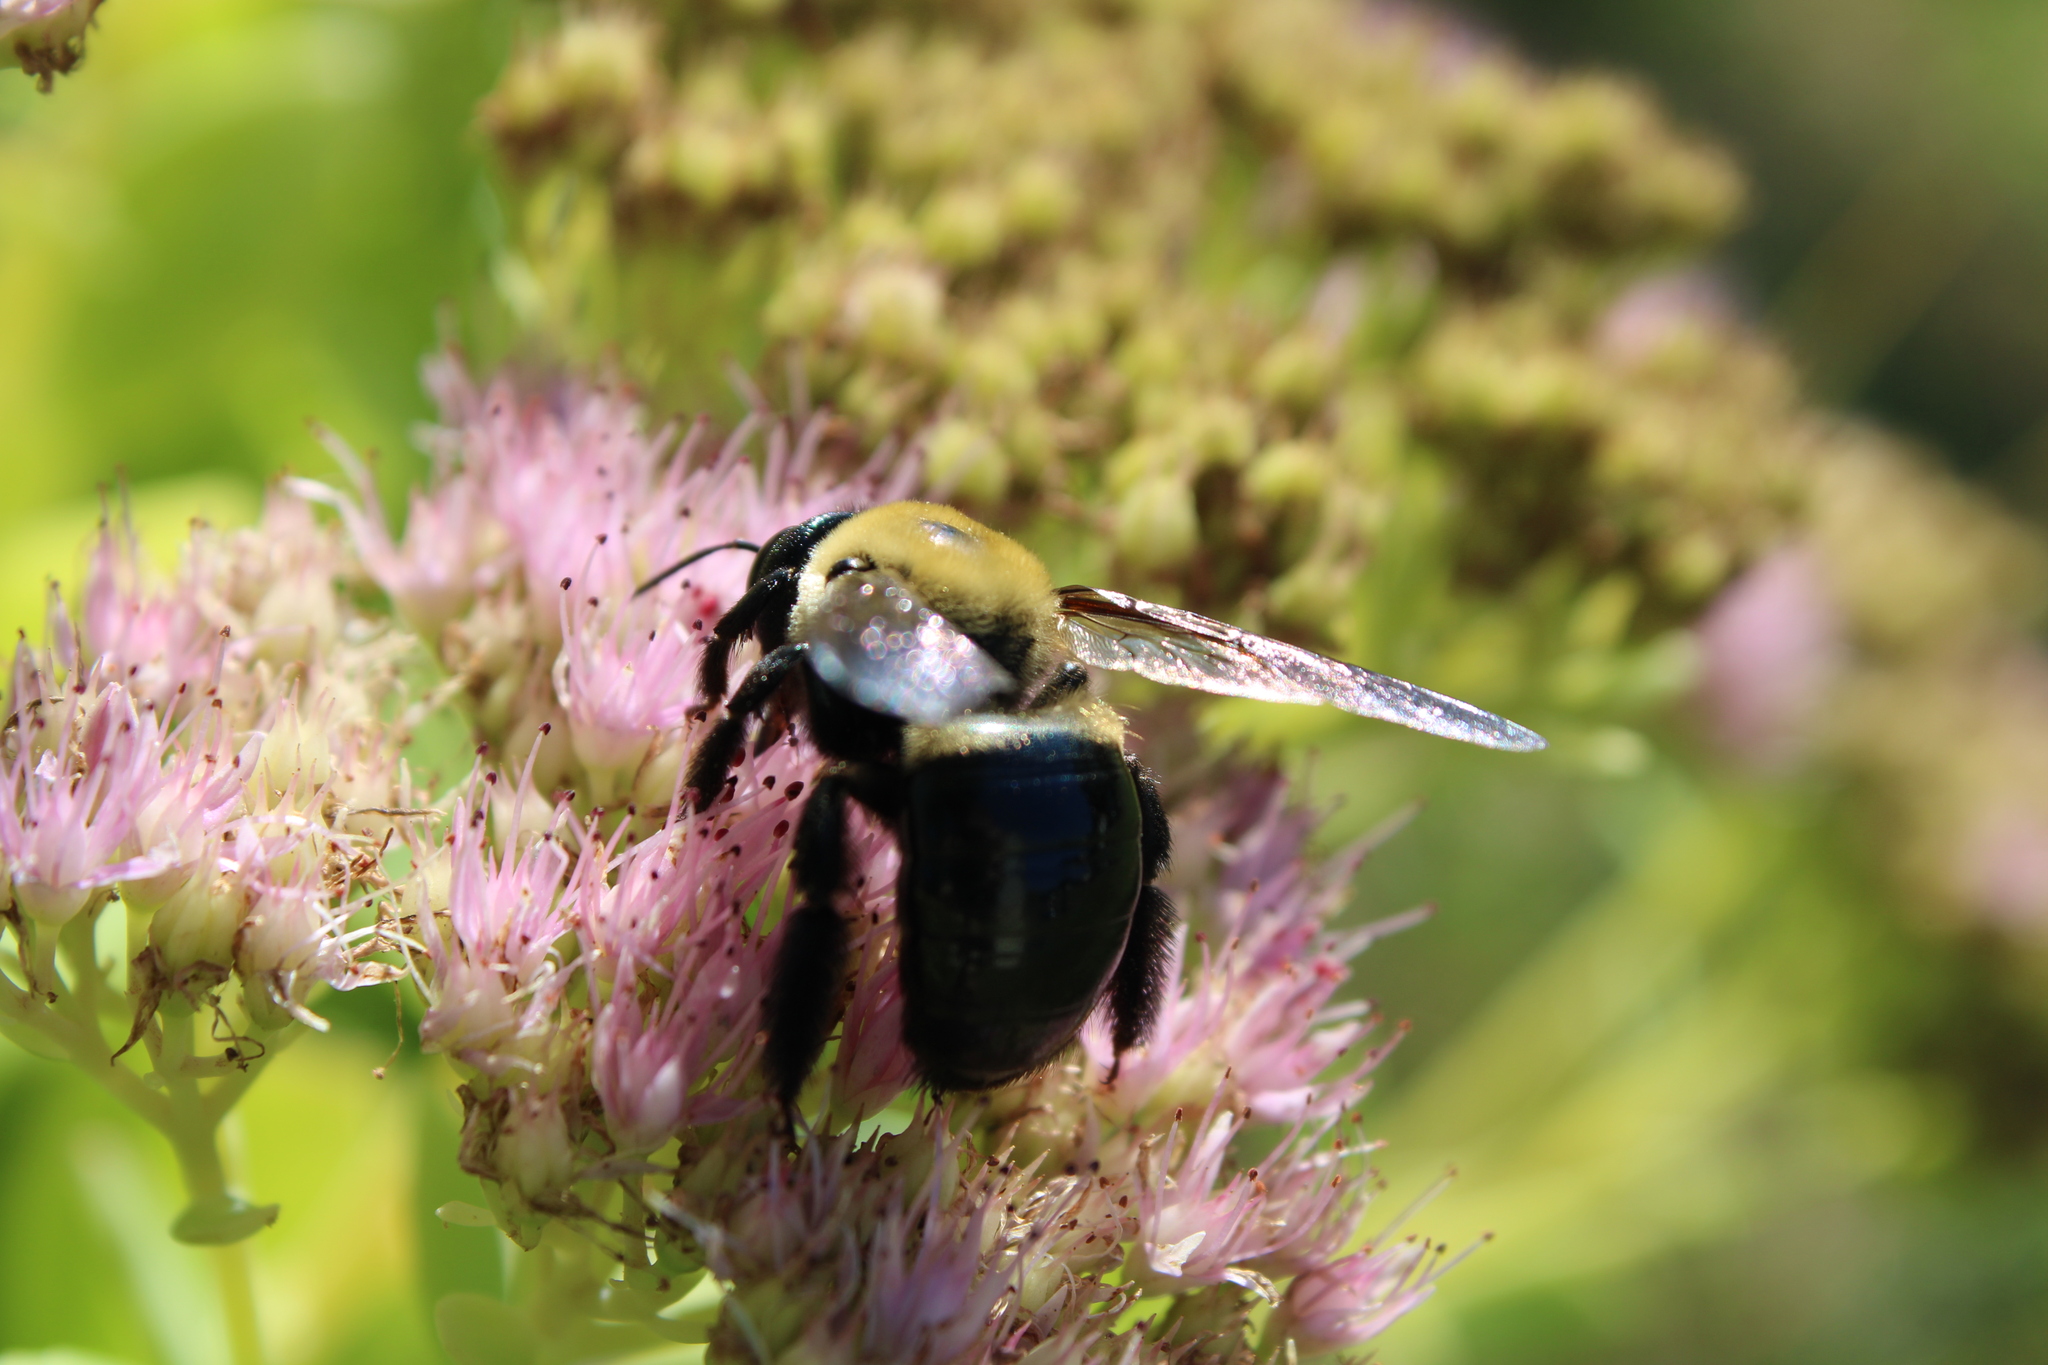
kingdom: Animalia
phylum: Arthropoda
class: Insecta
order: Hymenoptera
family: Apidae
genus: Xylocopa
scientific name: Xylocopa virginica
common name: Carpenter bee
